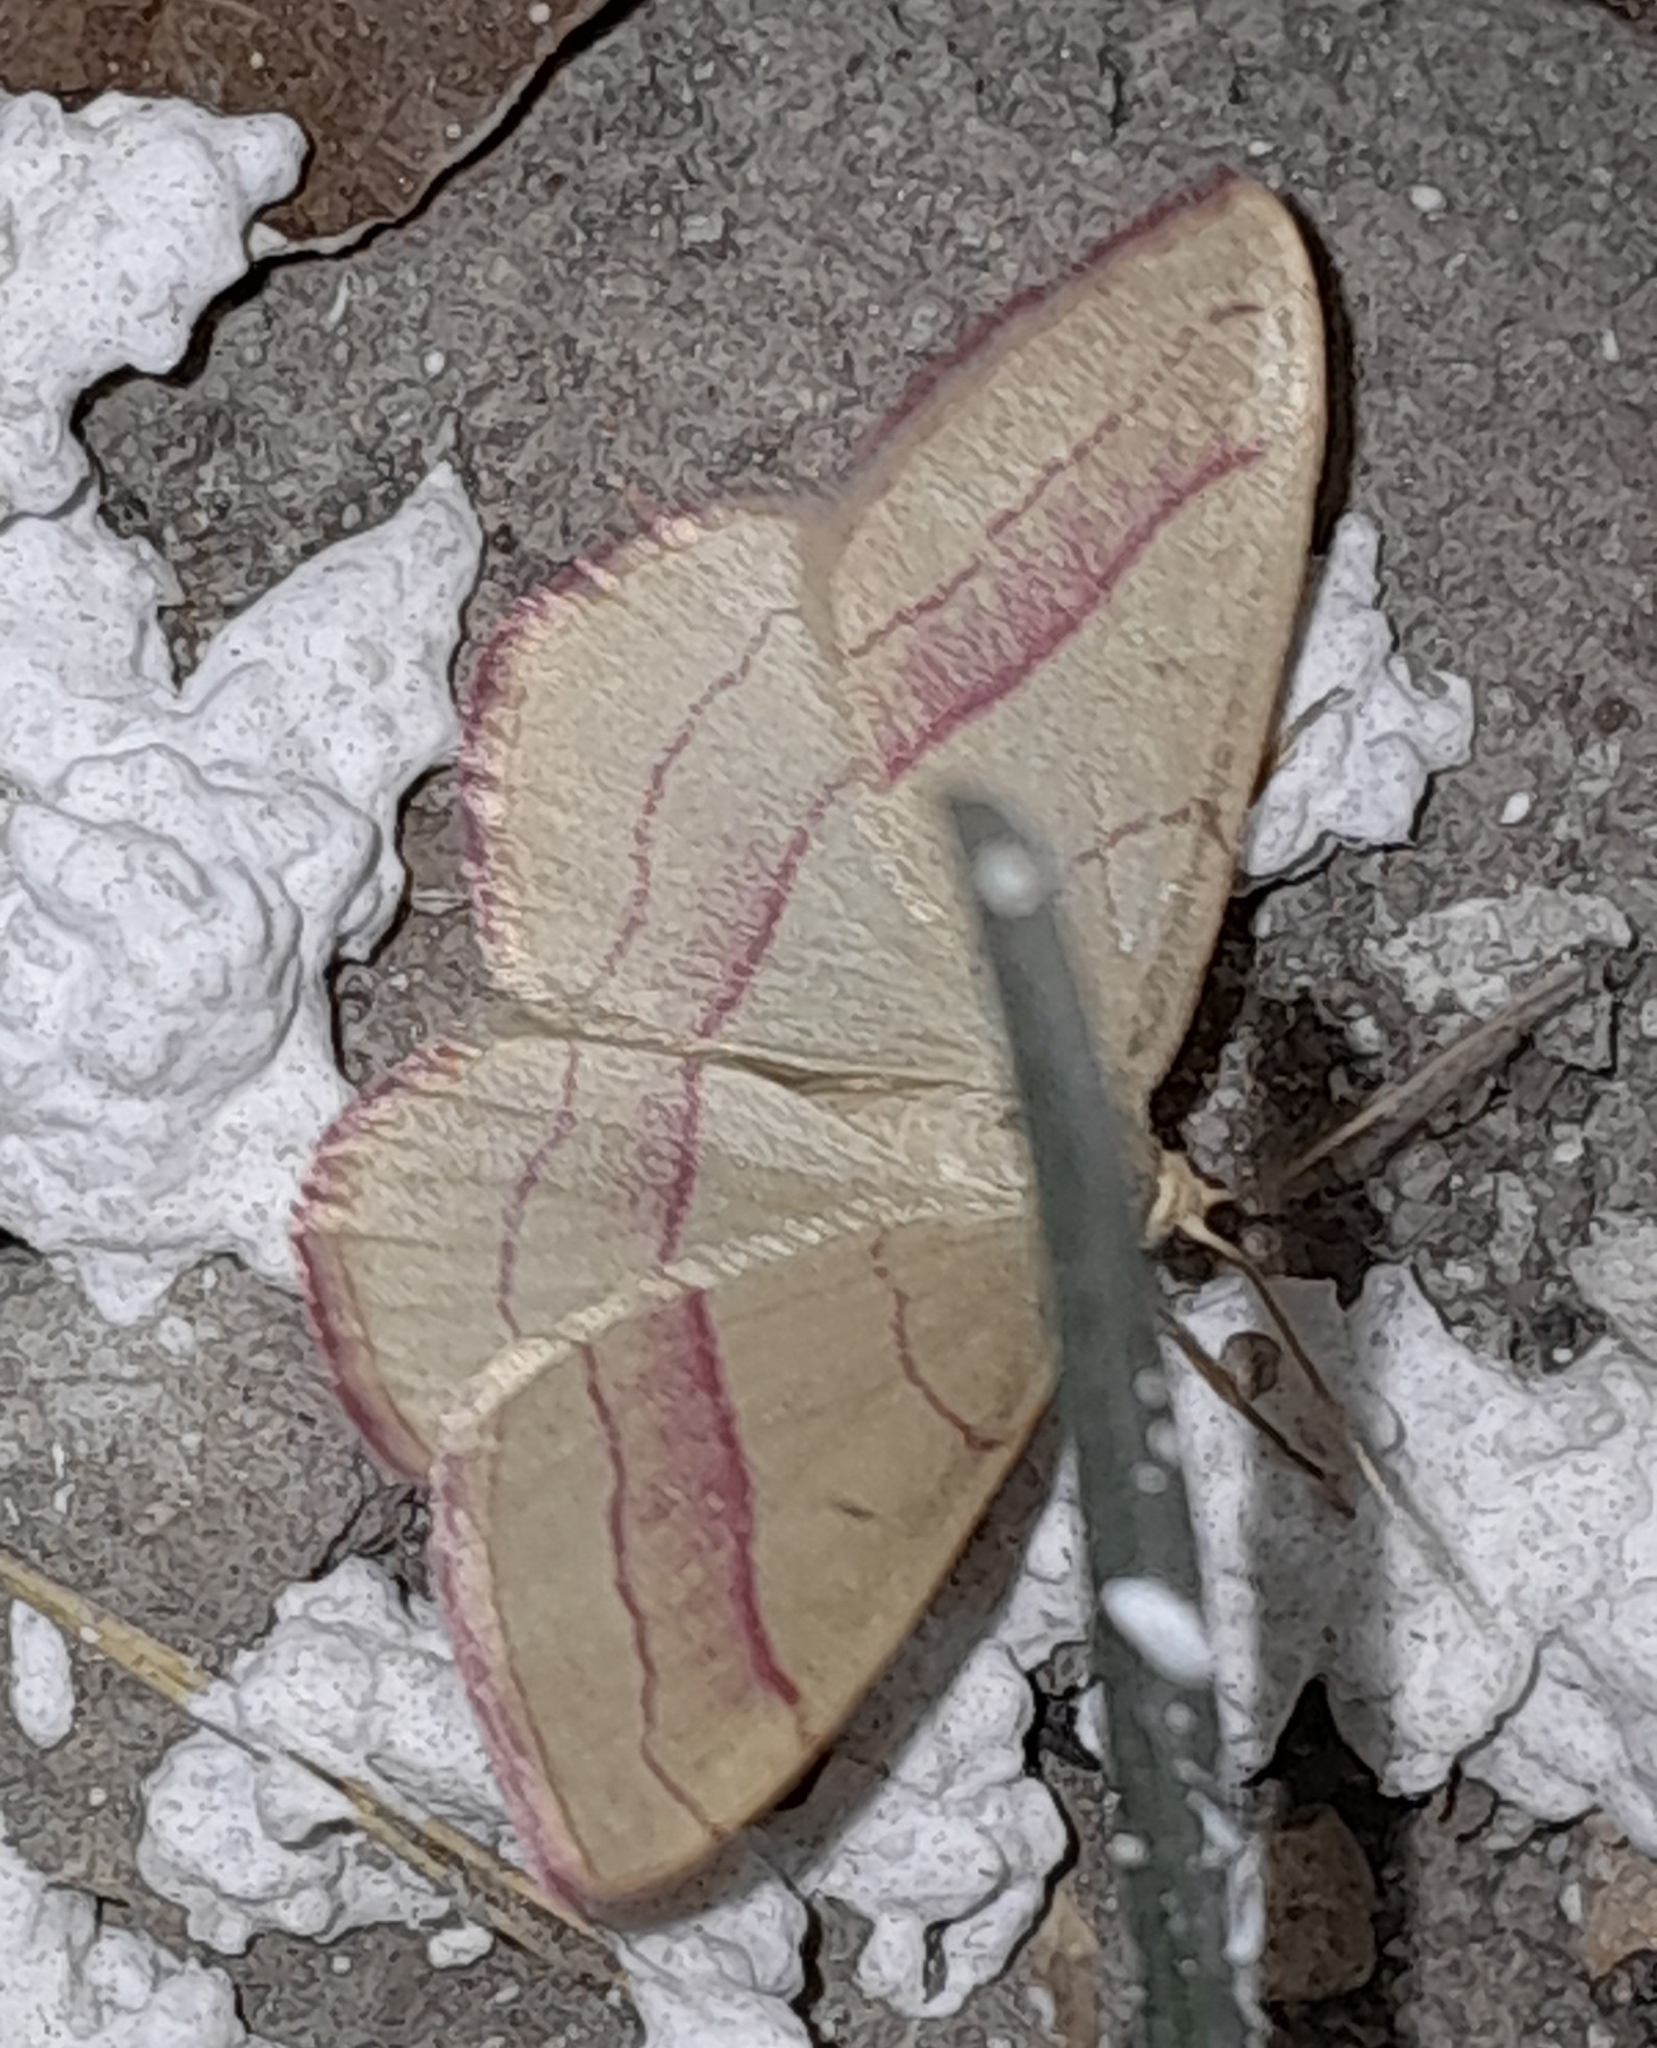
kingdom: Animalia
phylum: Arthropoda
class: Insecta
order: Lepidoptera
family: Geometridae
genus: Rhodostrophia
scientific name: Rhodostrophia vibicaria
